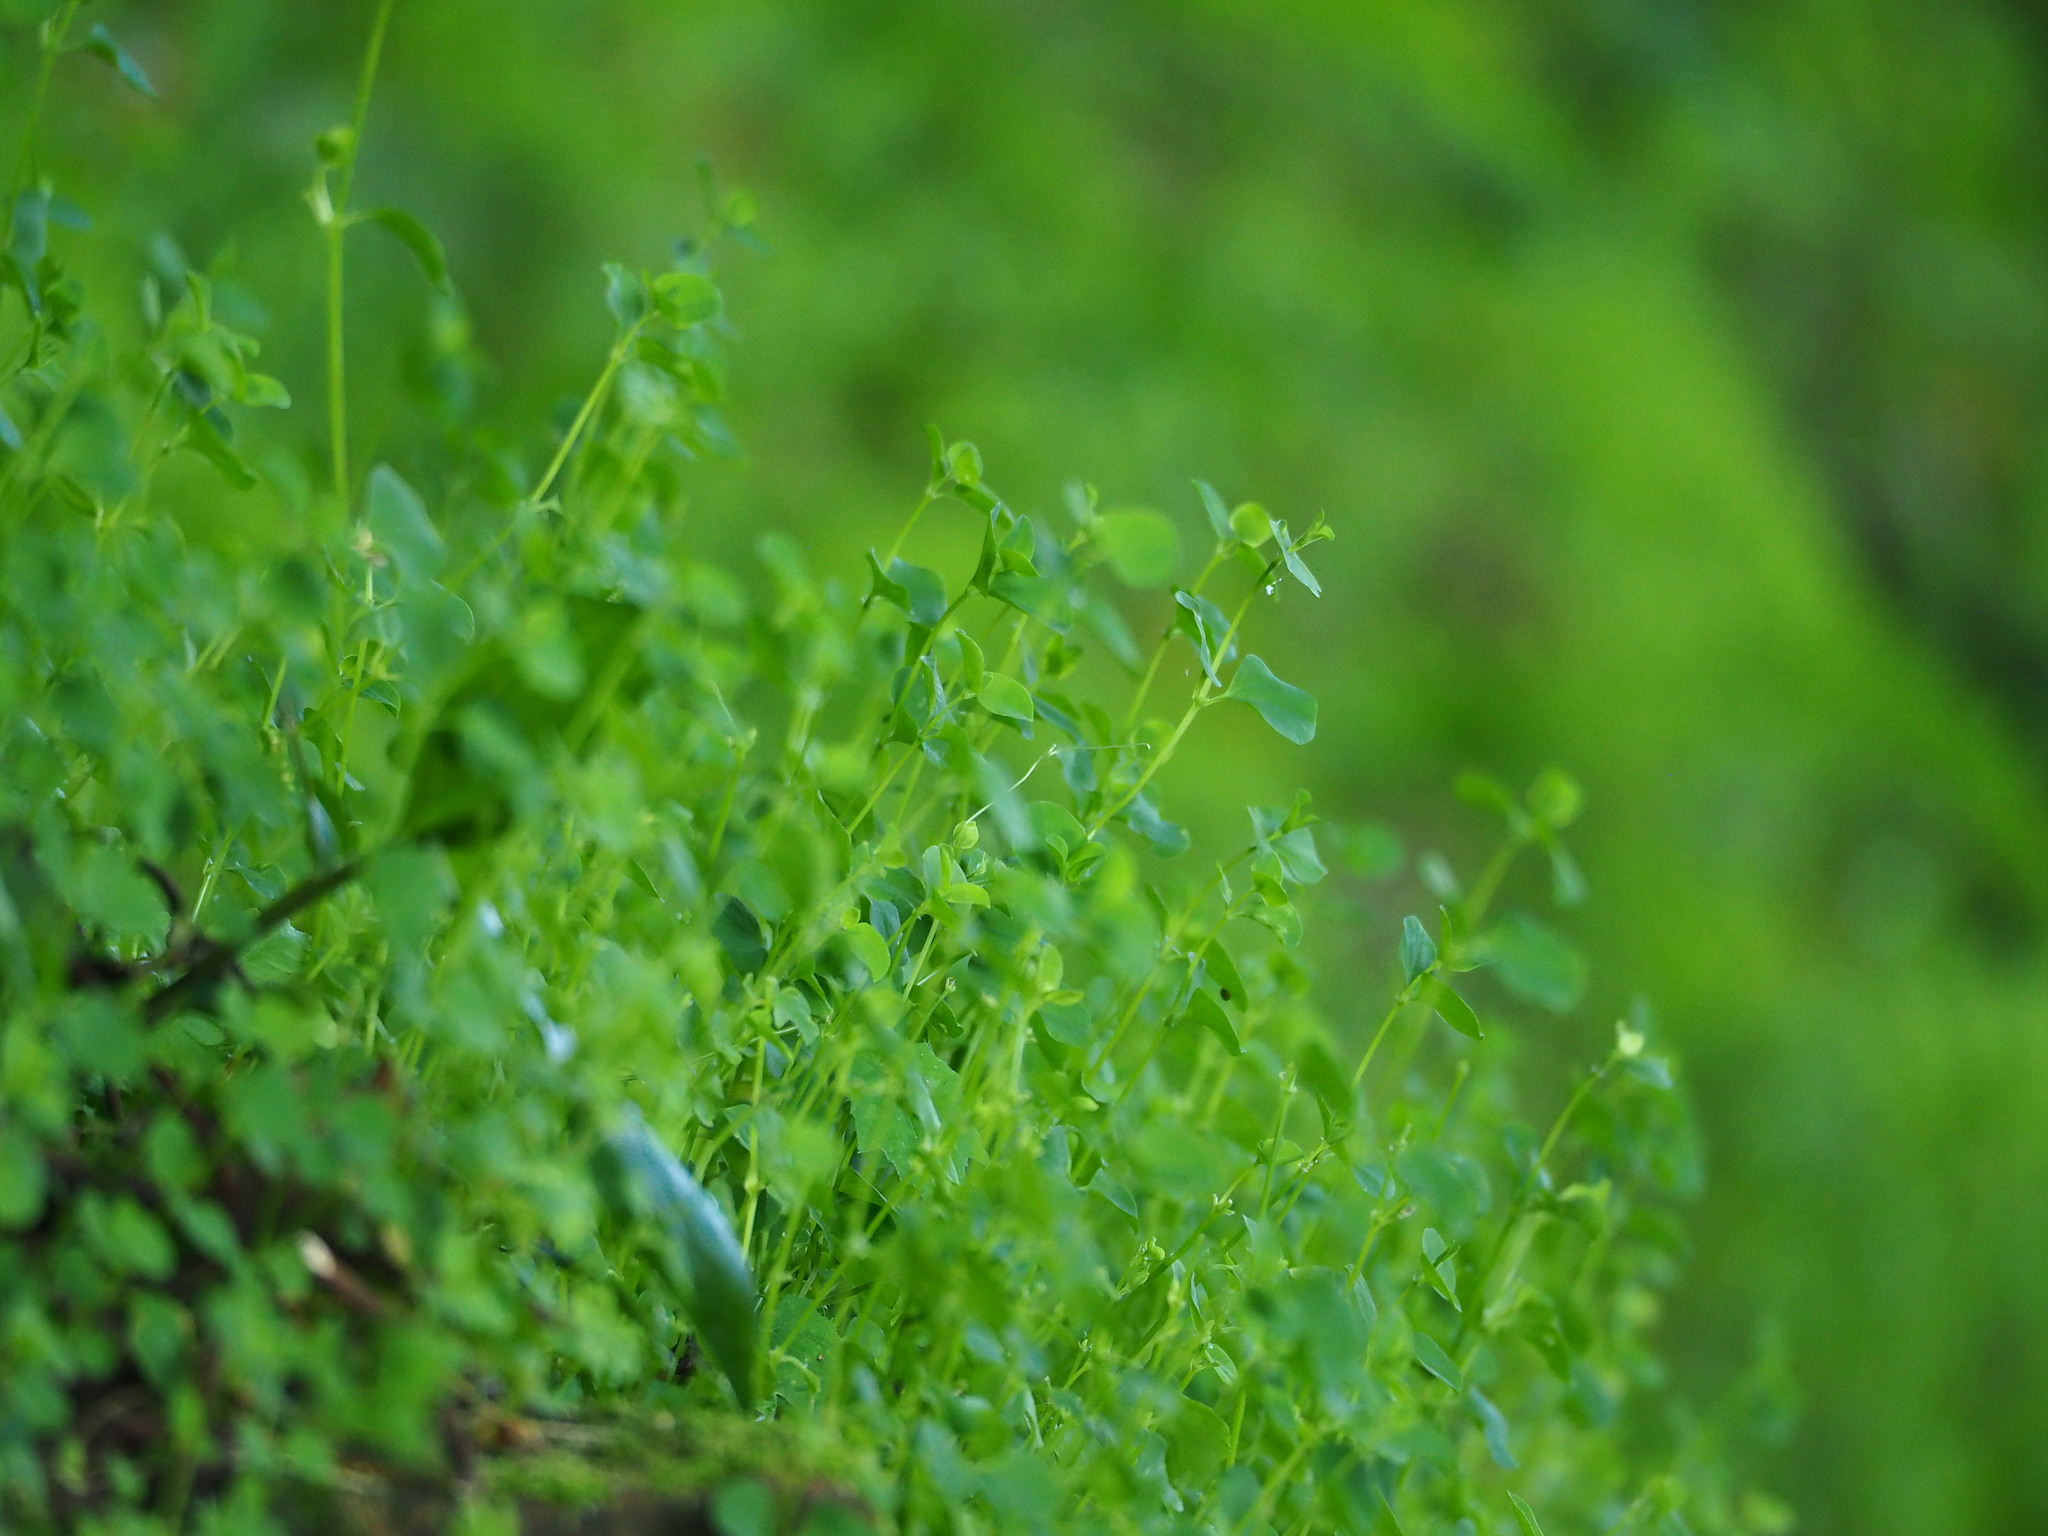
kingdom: Plantae
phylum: Tracheophyta
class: Magnoliopsida
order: Caryophyllales
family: Caryophyllaceae
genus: Drymaria
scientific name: Drymaria cordata
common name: Whitesnow
